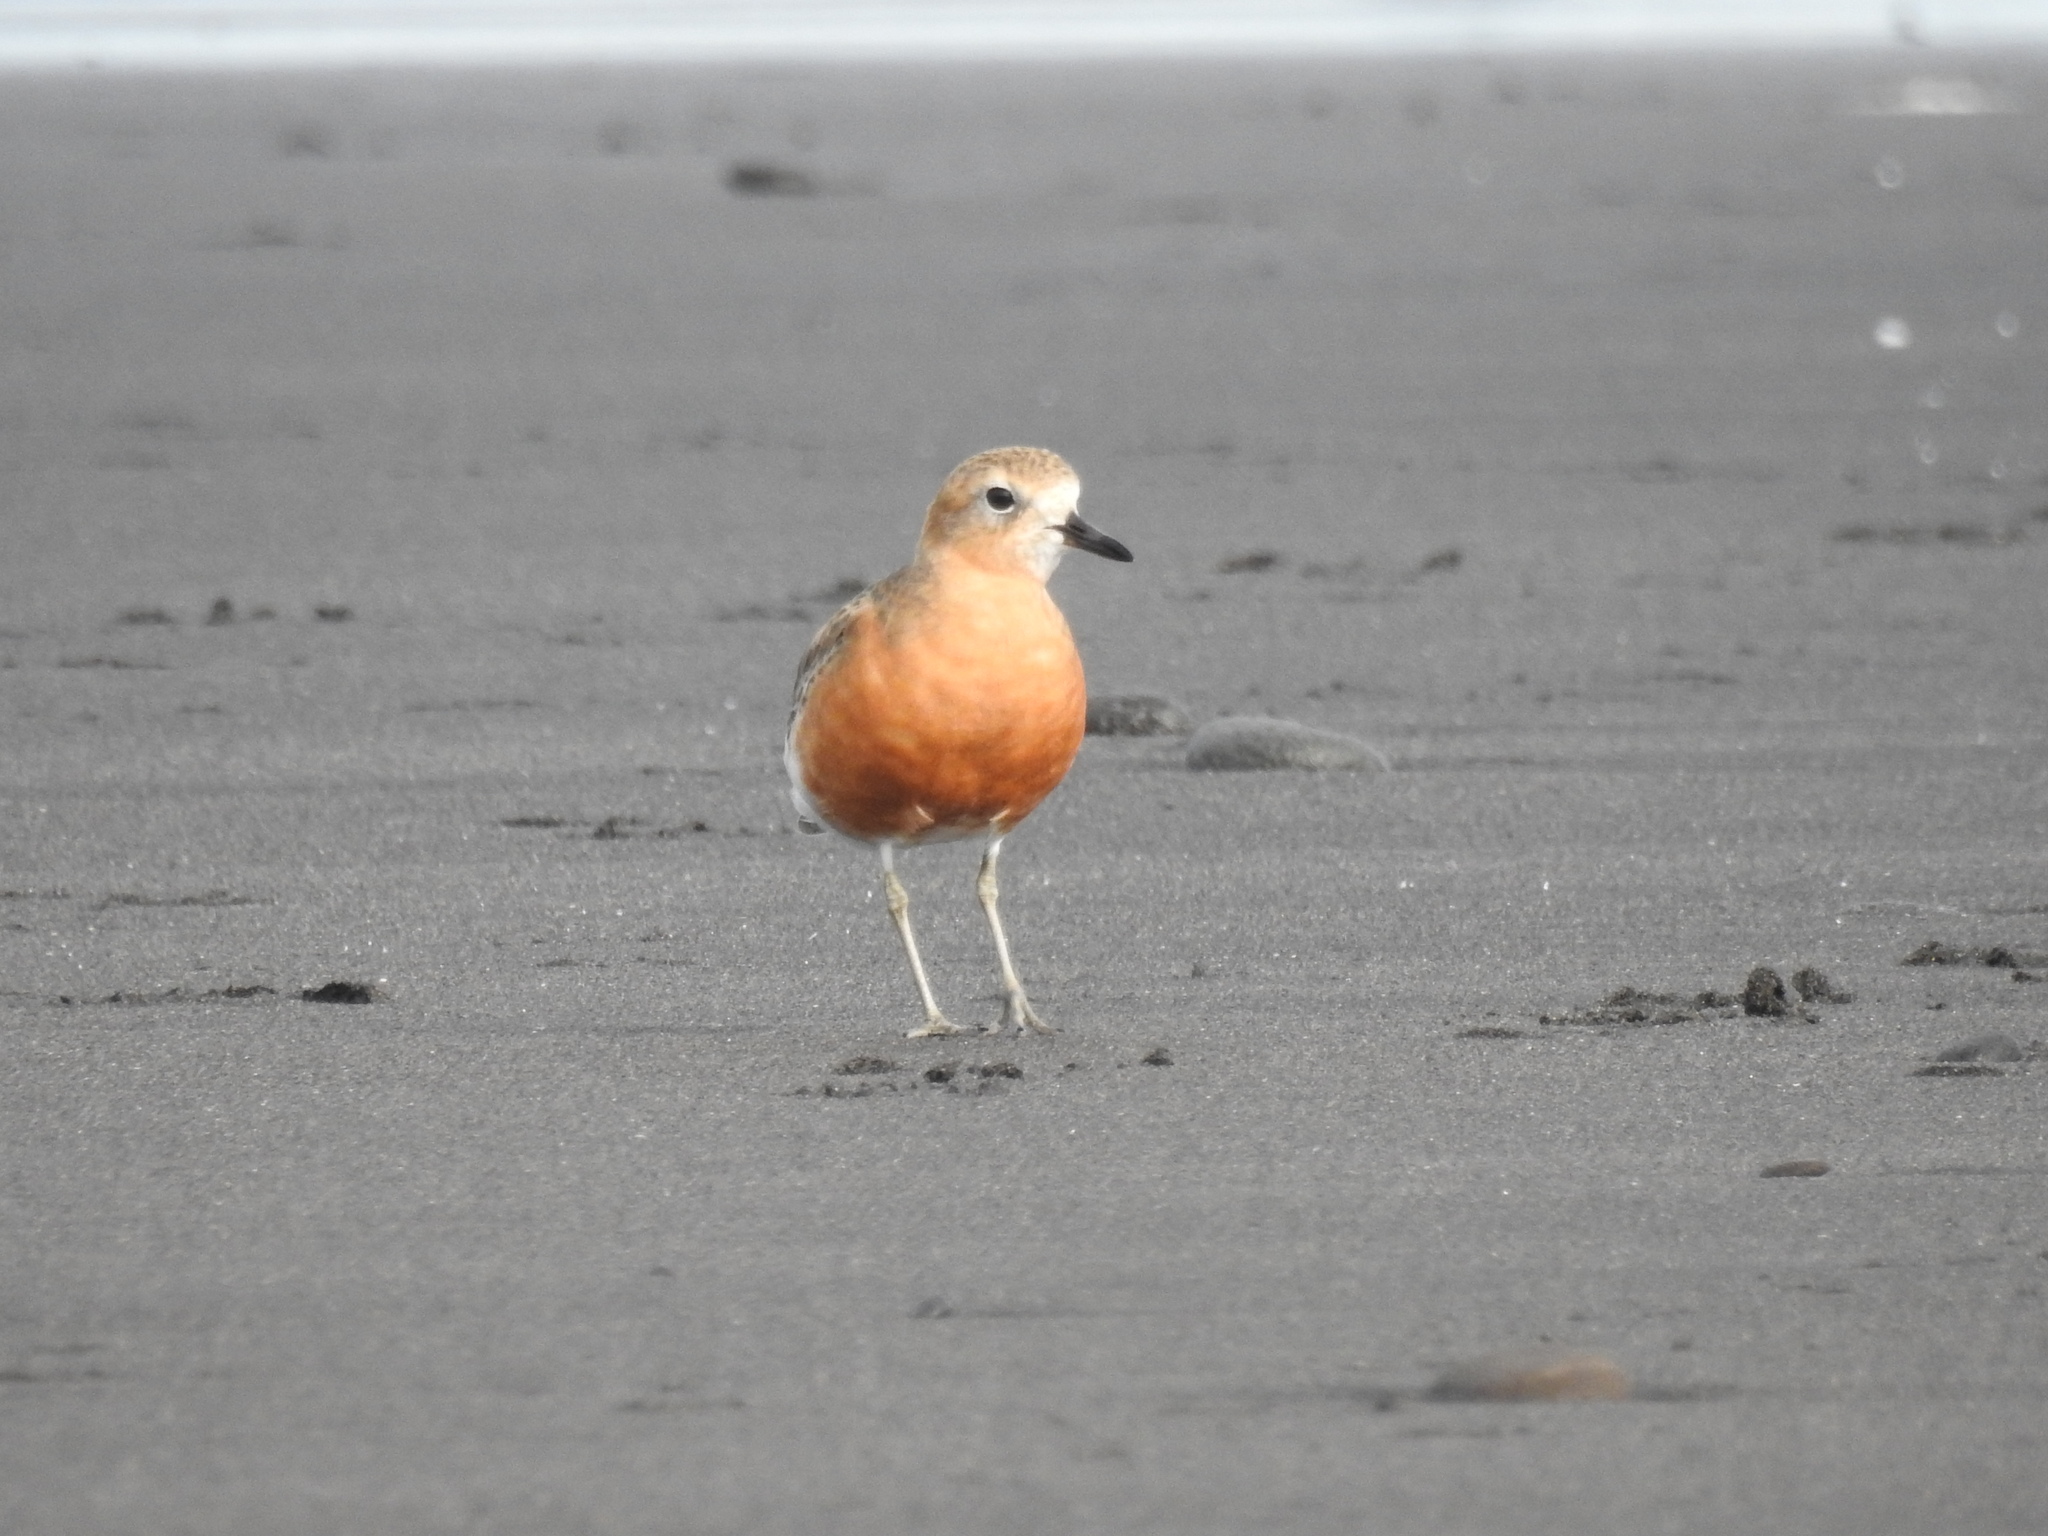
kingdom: Animalia
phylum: Chordata
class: Aves
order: Charadriiformes
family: Charadriidae
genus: Anarhynchus
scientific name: Anarhynchus
